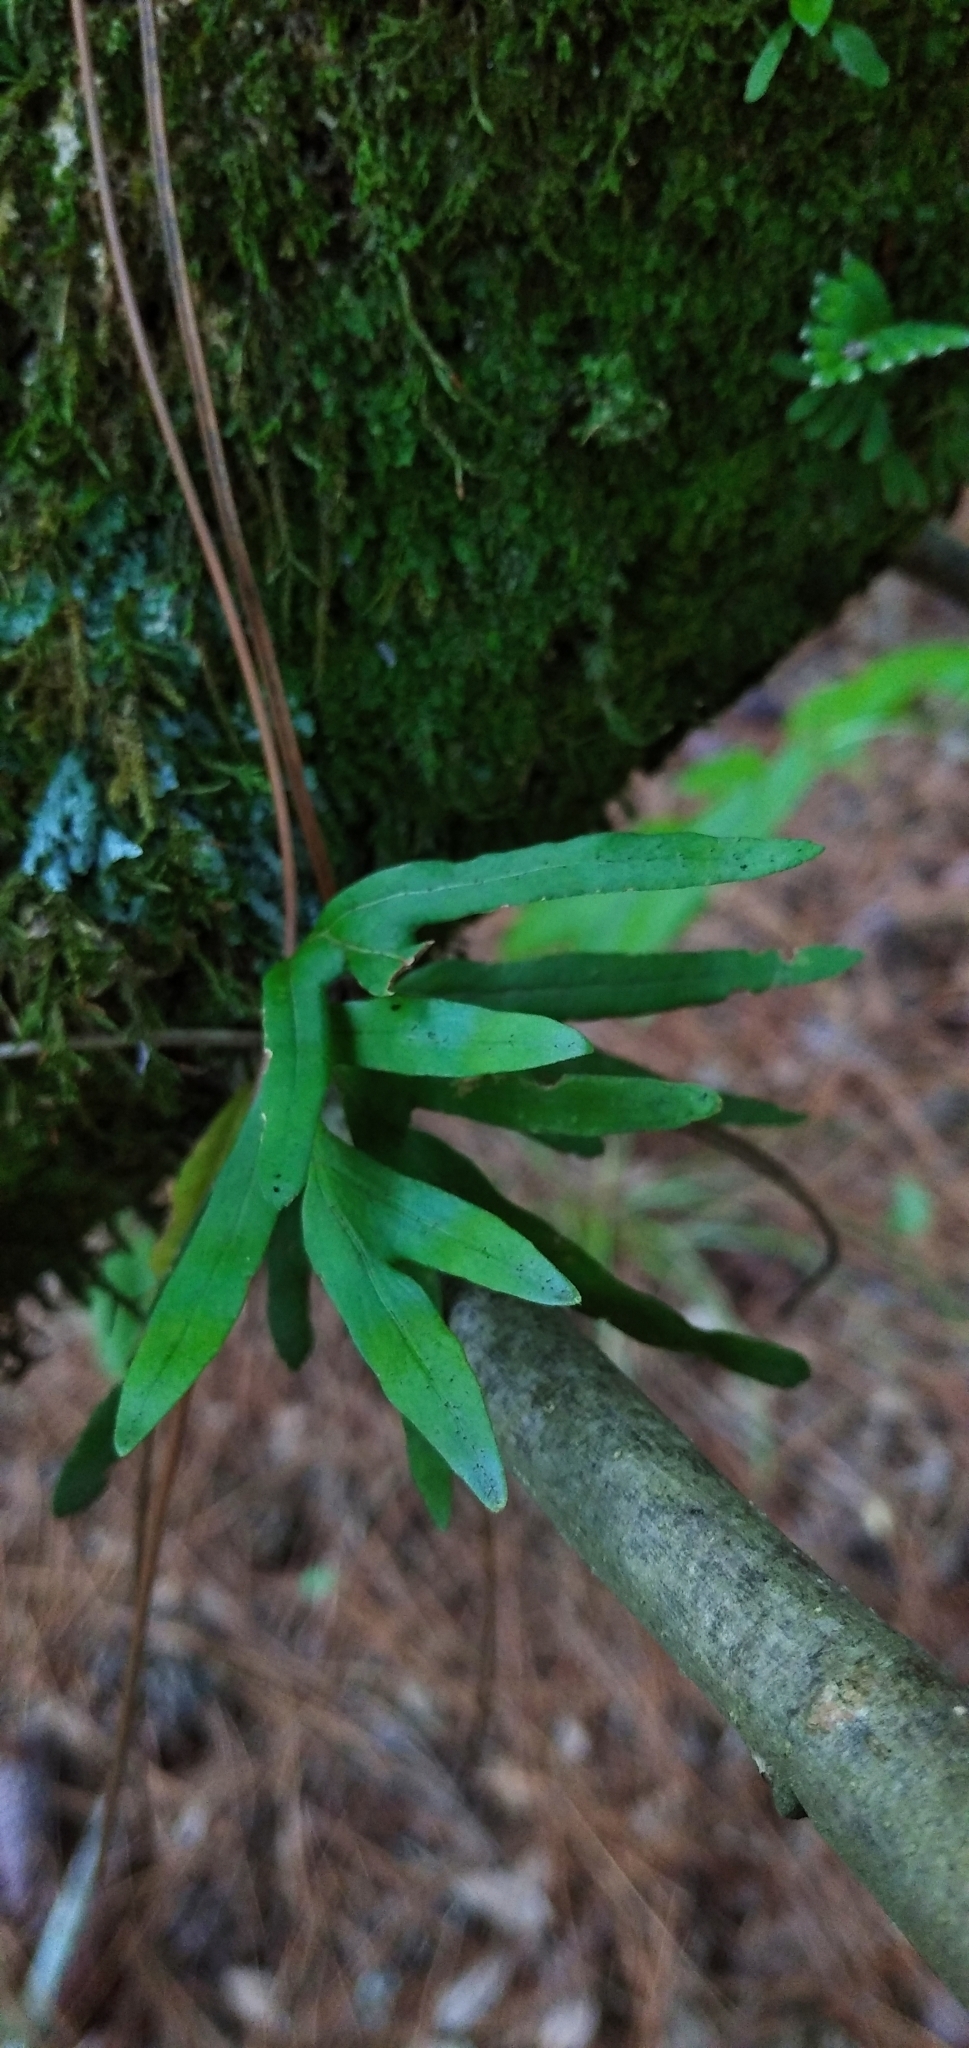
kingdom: Plantae
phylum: Tracheophyta
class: Polypodiopsida
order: Polypodiales
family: Polypodiaceae
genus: Pleopeltis
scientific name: Pleopeltis pleopeltifolia
